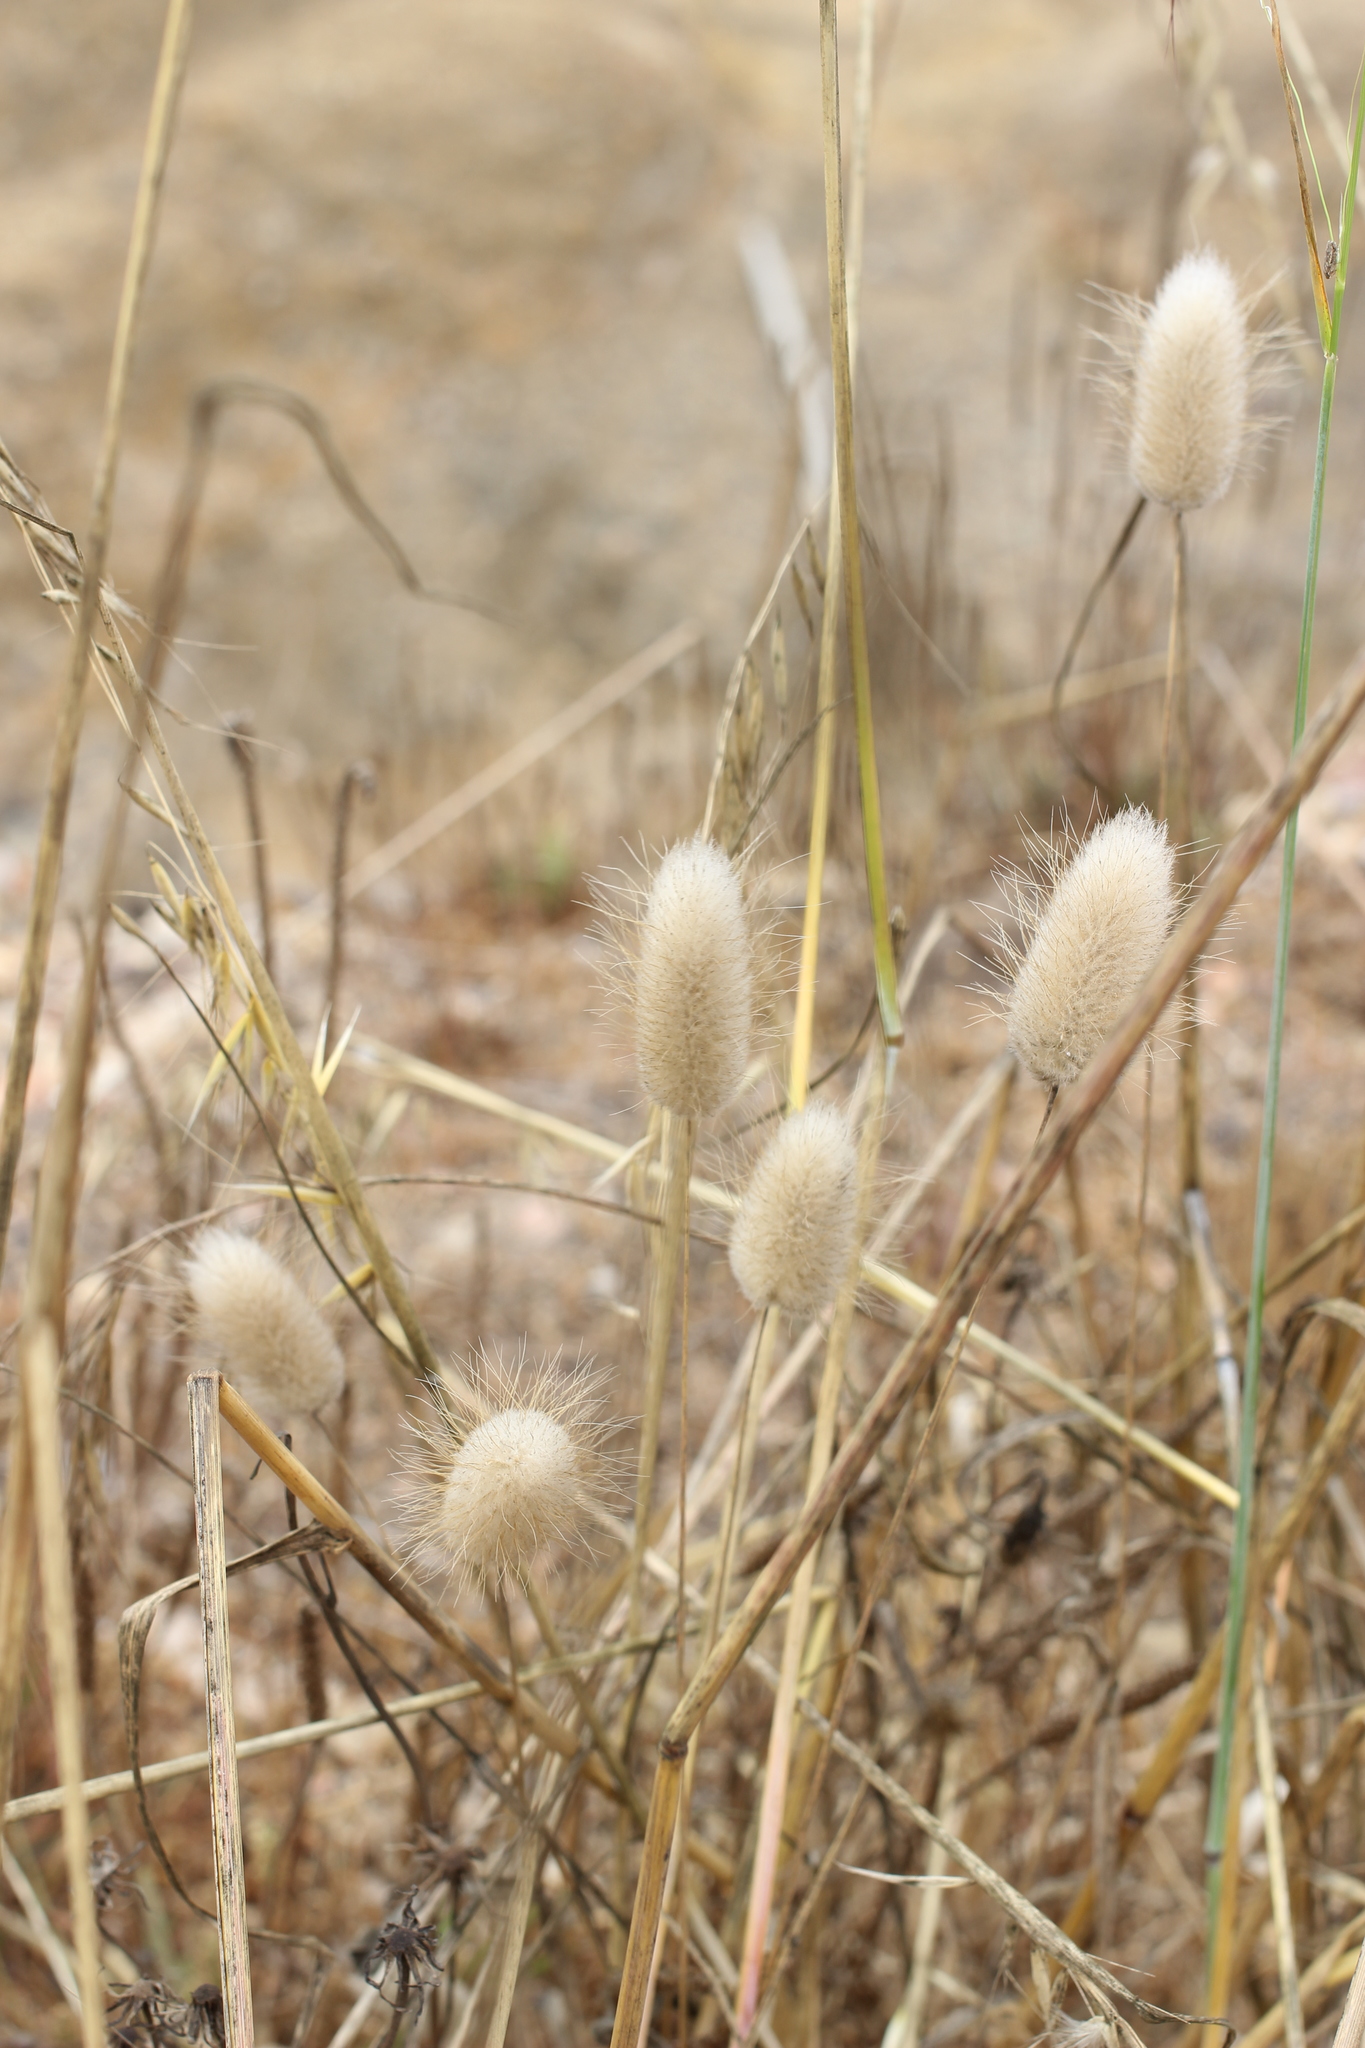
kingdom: Plantae
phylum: Tracheophyta
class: Liliopsida
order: Poales
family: Poaceae
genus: Lagurus
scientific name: Lagurus ovatus
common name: Hare's-tail
